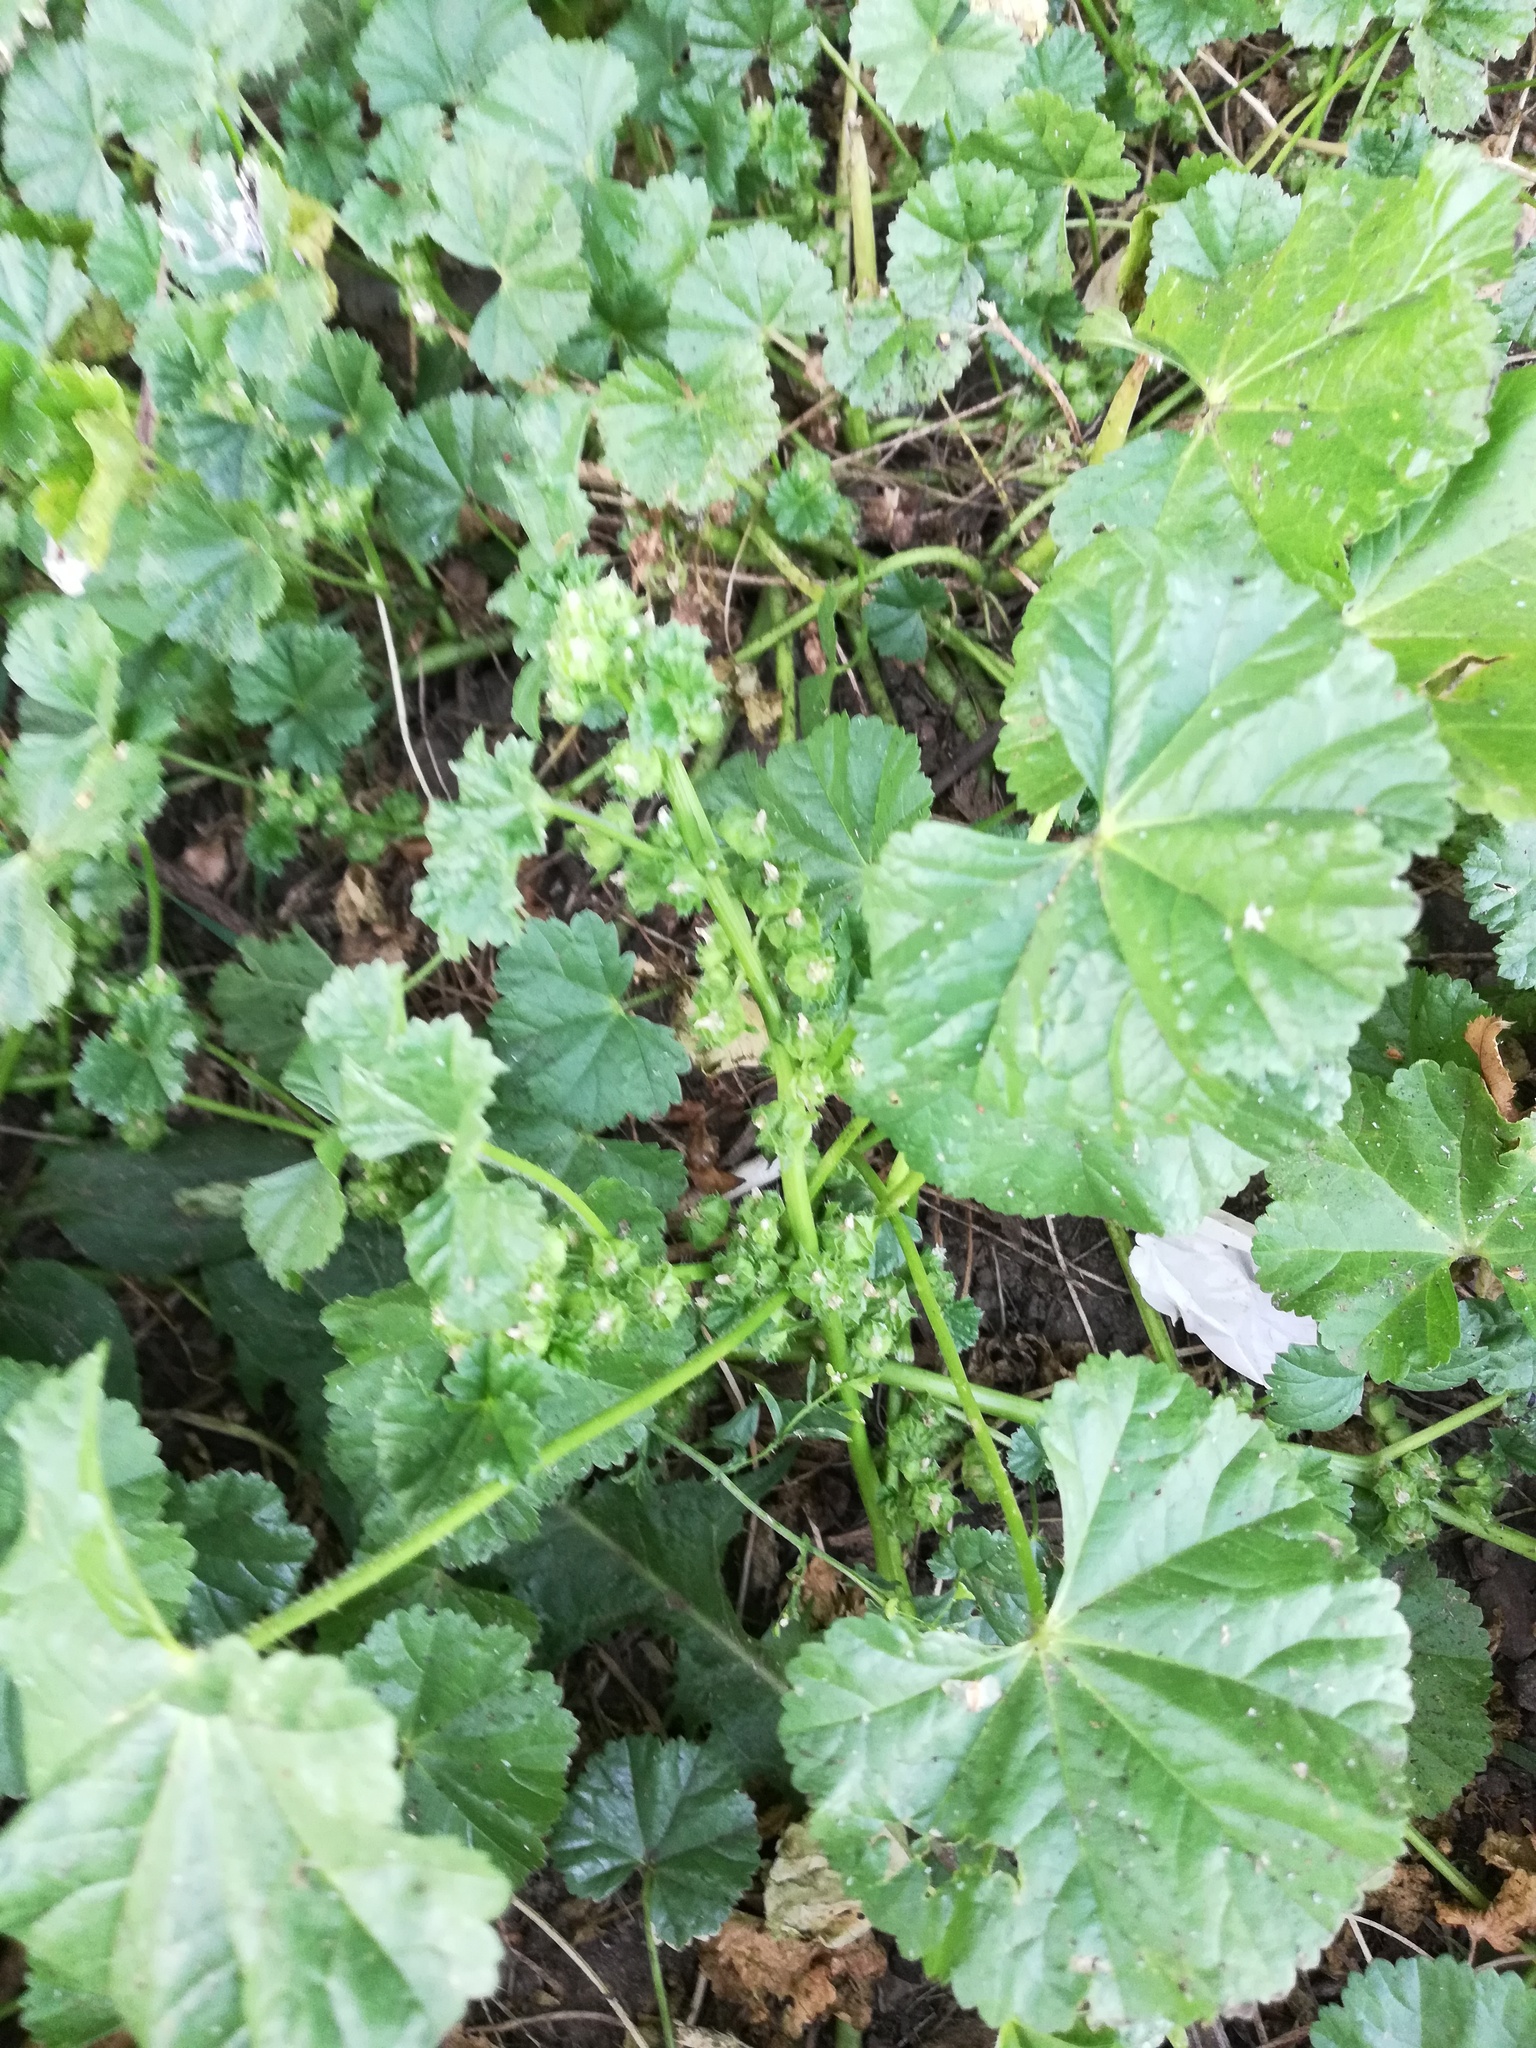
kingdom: Plantae
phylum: Tracheophyta
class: Magnoliopsida
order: Malvales
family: Malvaceae
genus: Malva
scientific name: Malva pusilla
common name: Small mallow
